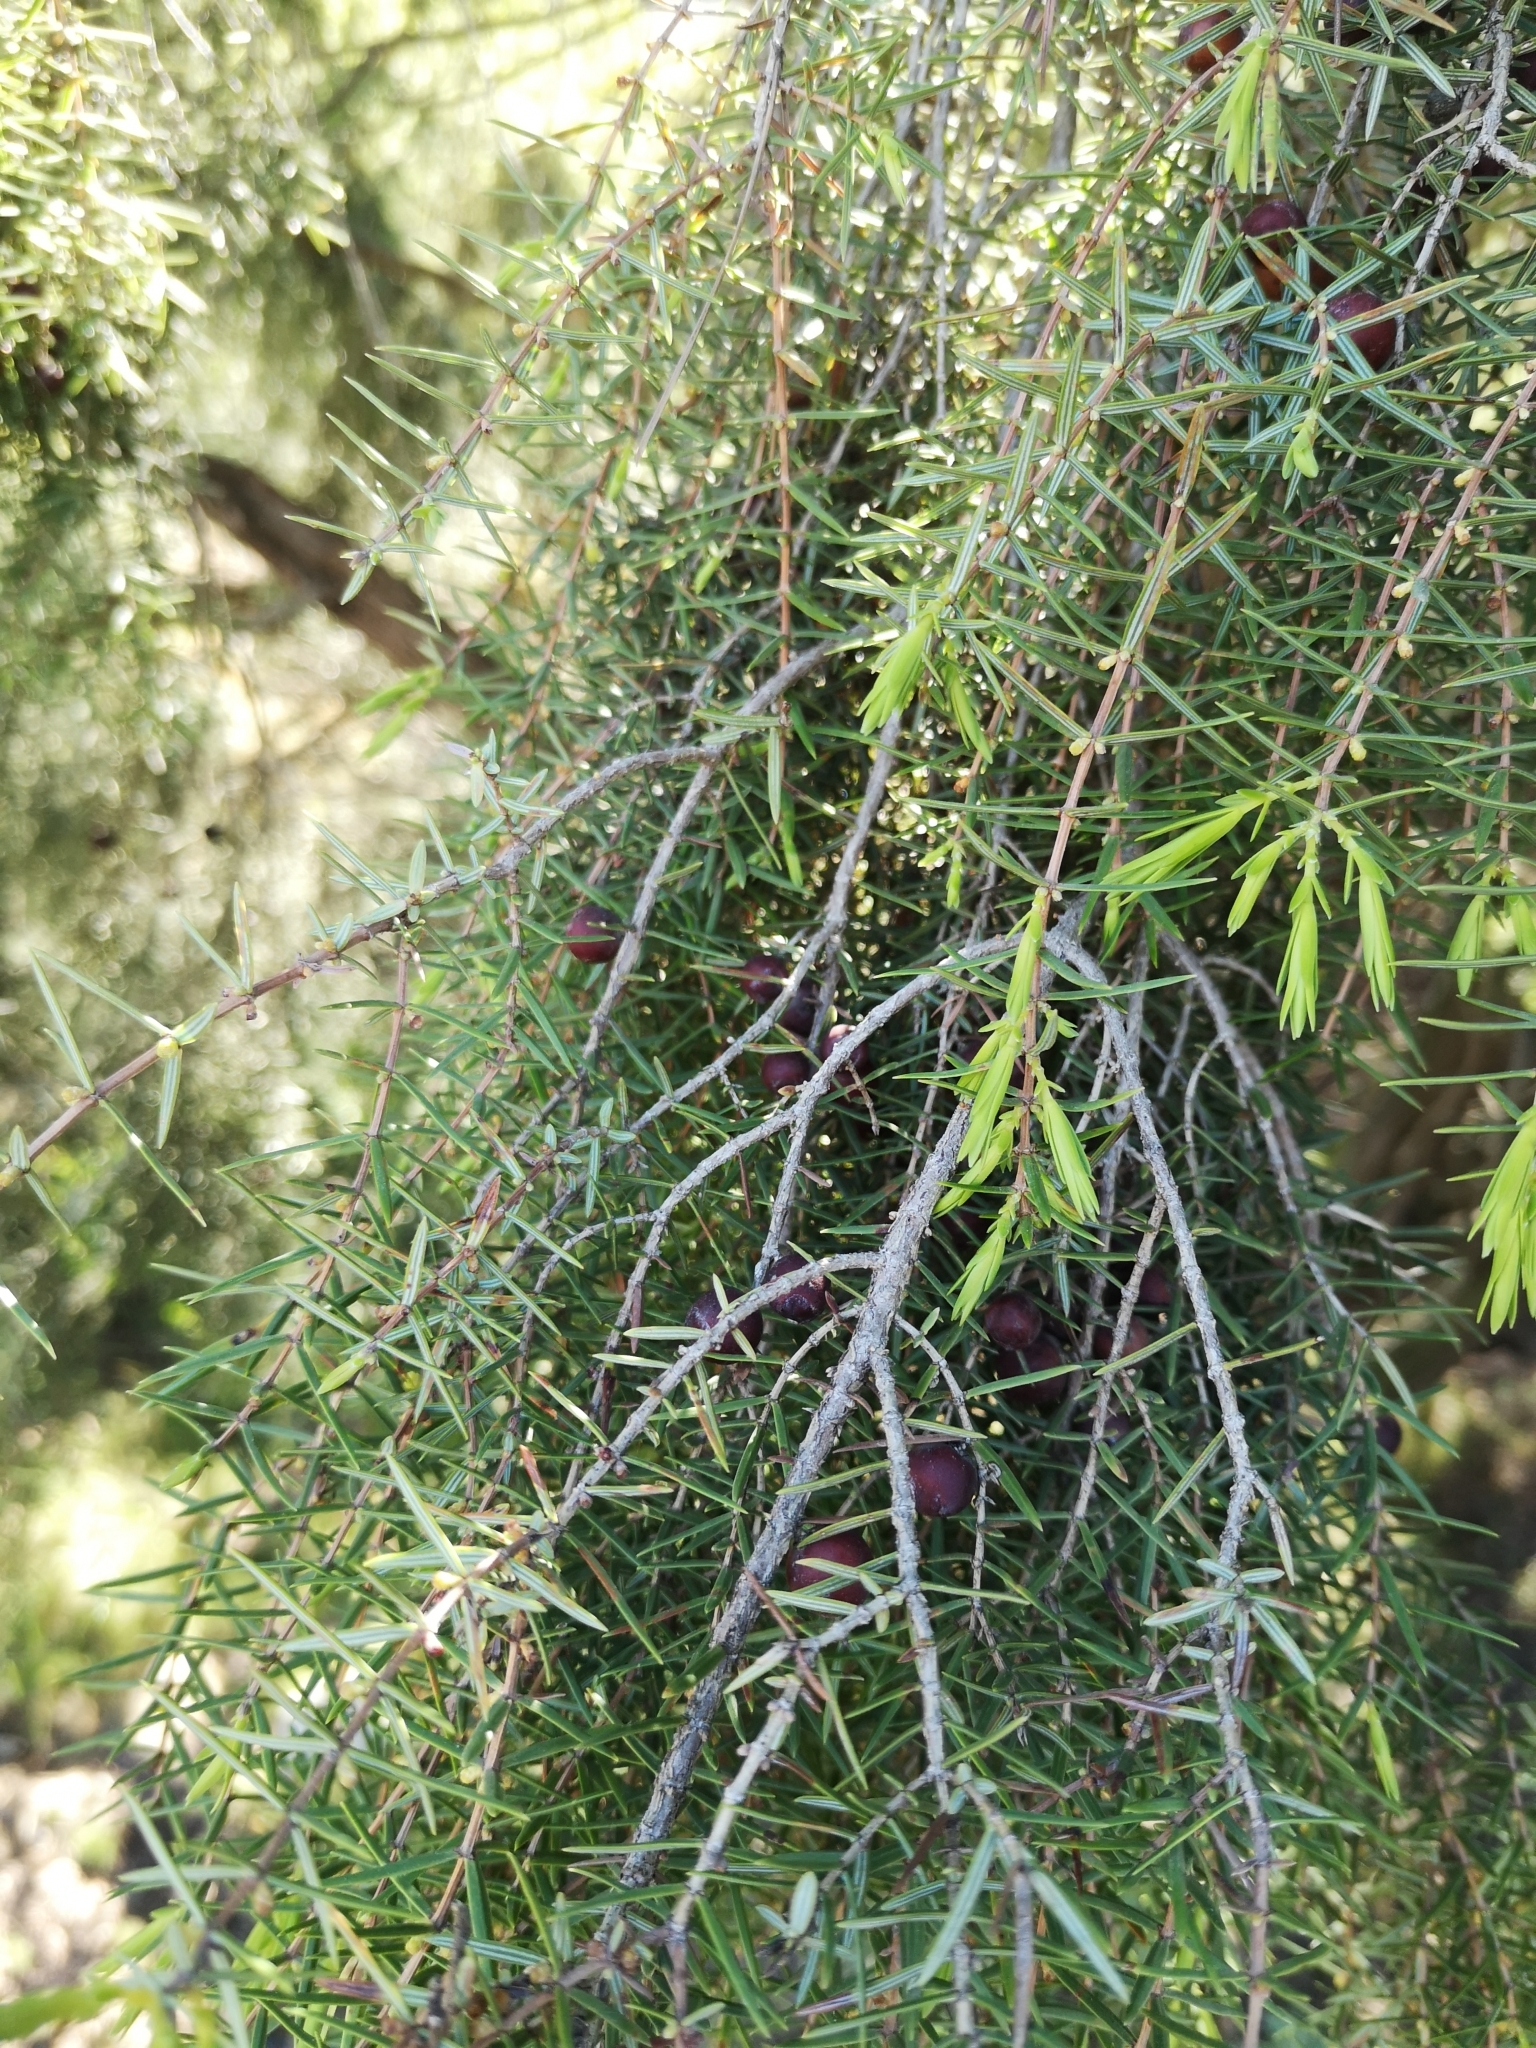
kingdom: Plantae
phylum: Tracheophyta
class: Pinopsida
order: Pinales
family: Cupressaceae
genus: Juniperus
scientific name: Juniperus oxycedrus
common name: Prickly juniper
